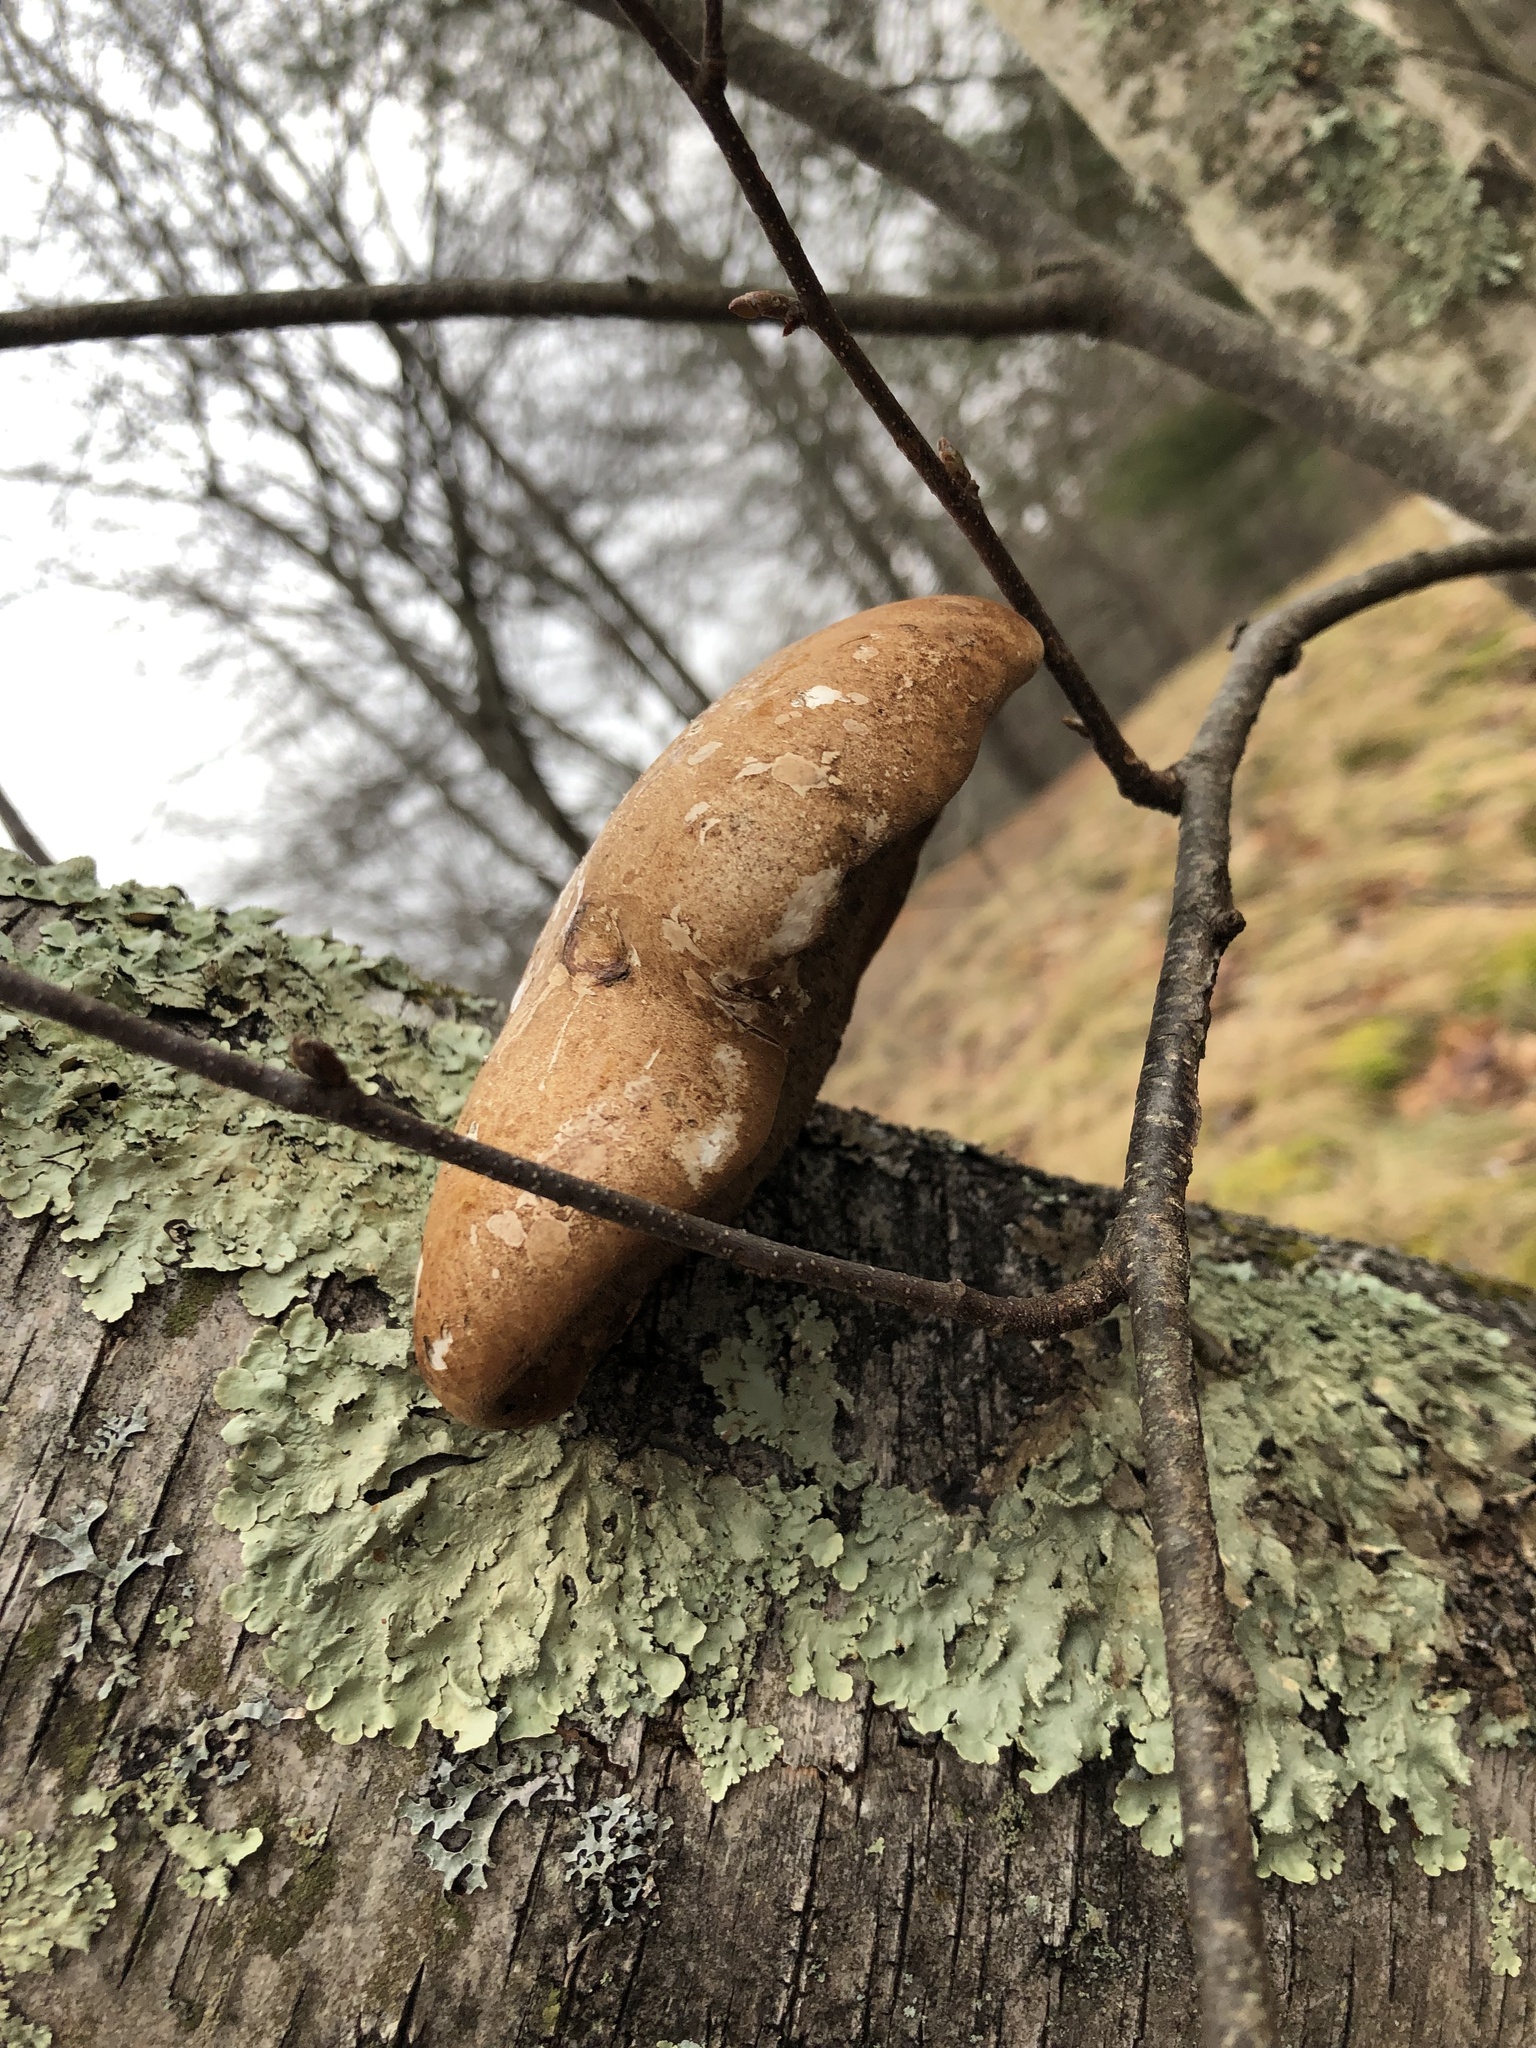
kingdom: Fungi
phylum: Basidiomycota
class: Agaricomycetes
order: Polyporales
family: Fomitopsidaceae
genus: Fomitopsis
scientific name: Fomitopsis betulina
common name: Birch polypore
